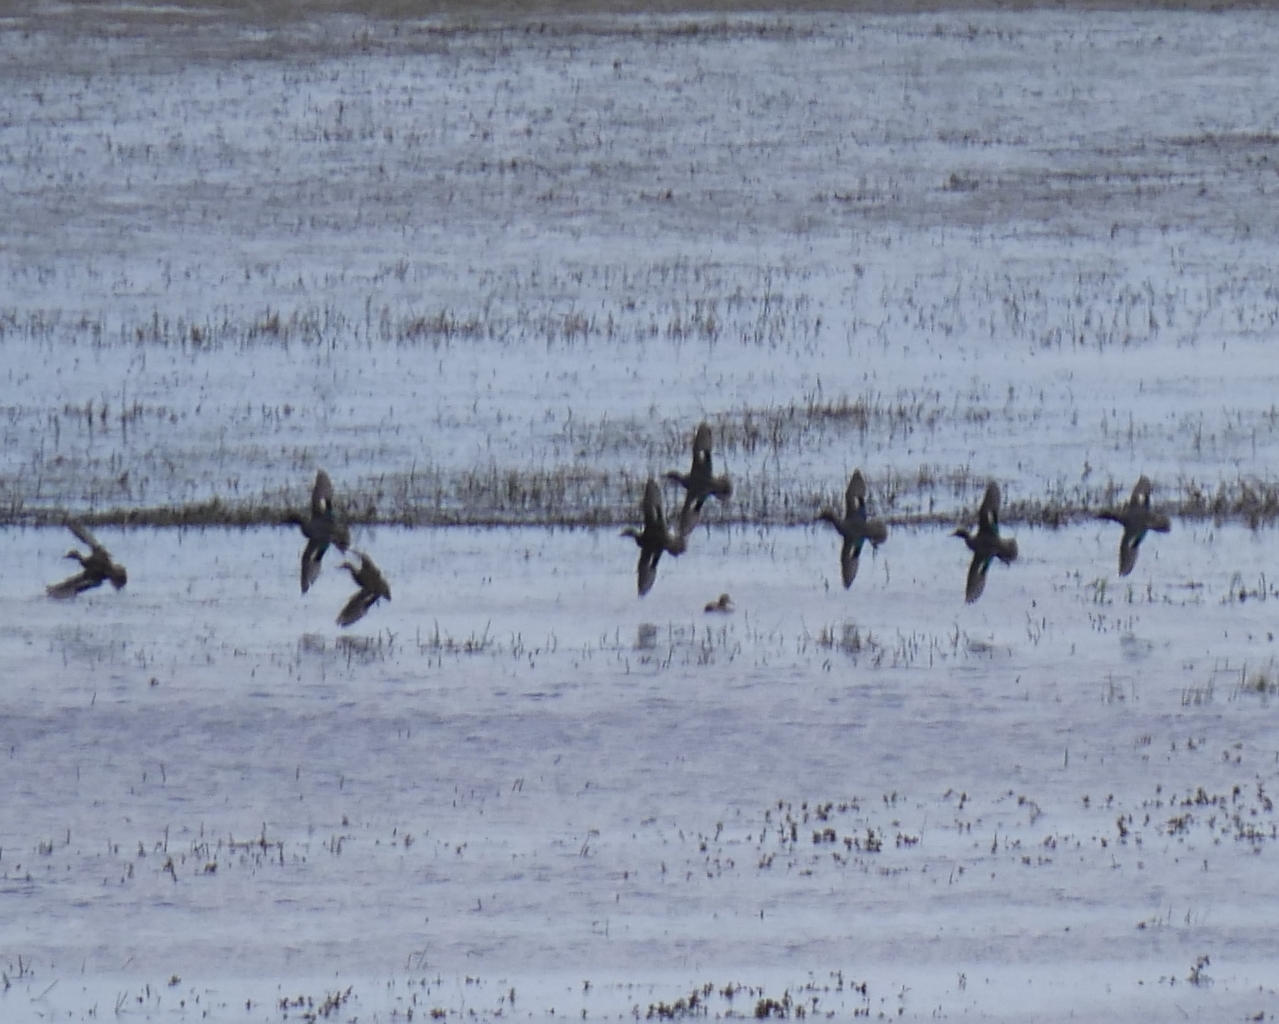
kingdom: Animalia
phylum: Chordata
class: Aves
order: Anseriformes
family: Anatidae
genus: Anas
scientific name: Anas crecca
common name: Eurasian teal
